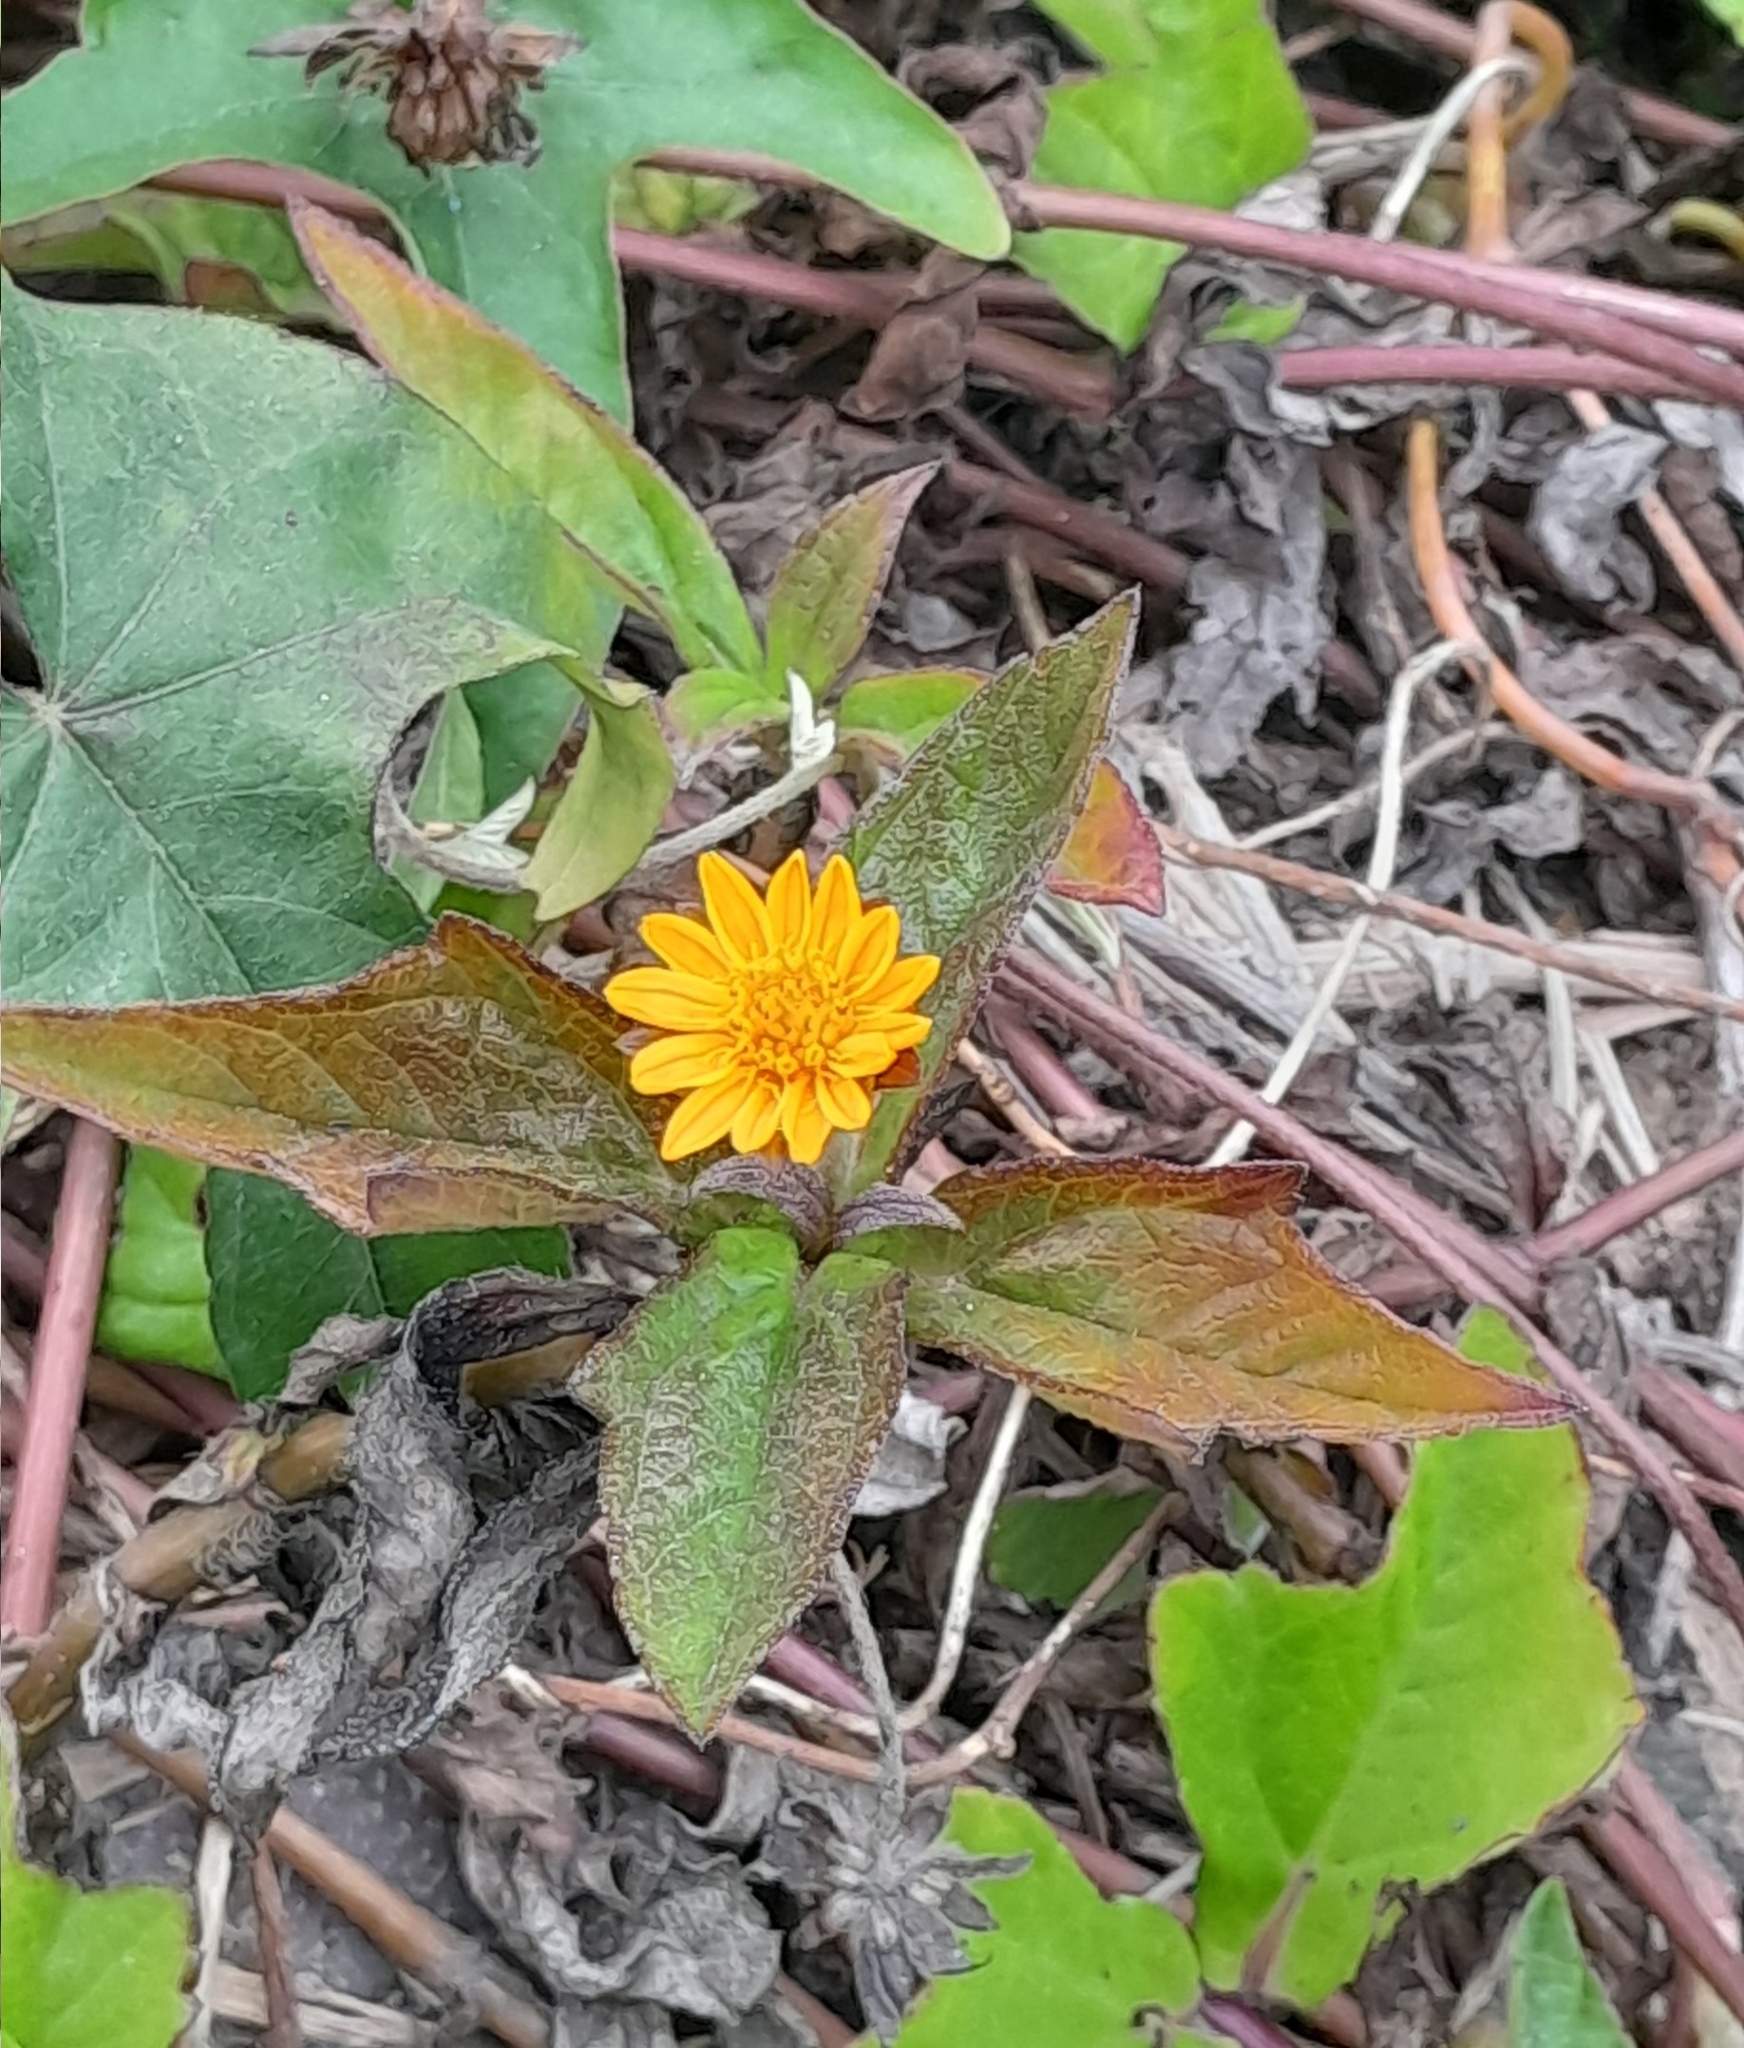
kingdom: Plantae
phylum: Tracheophyta
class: Magnoliopsida
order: Asterales
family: Asteraceae
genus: Sphagneticola
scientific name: Sphagneticola trilobata
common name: Bay biscayne creeping-oxeye
